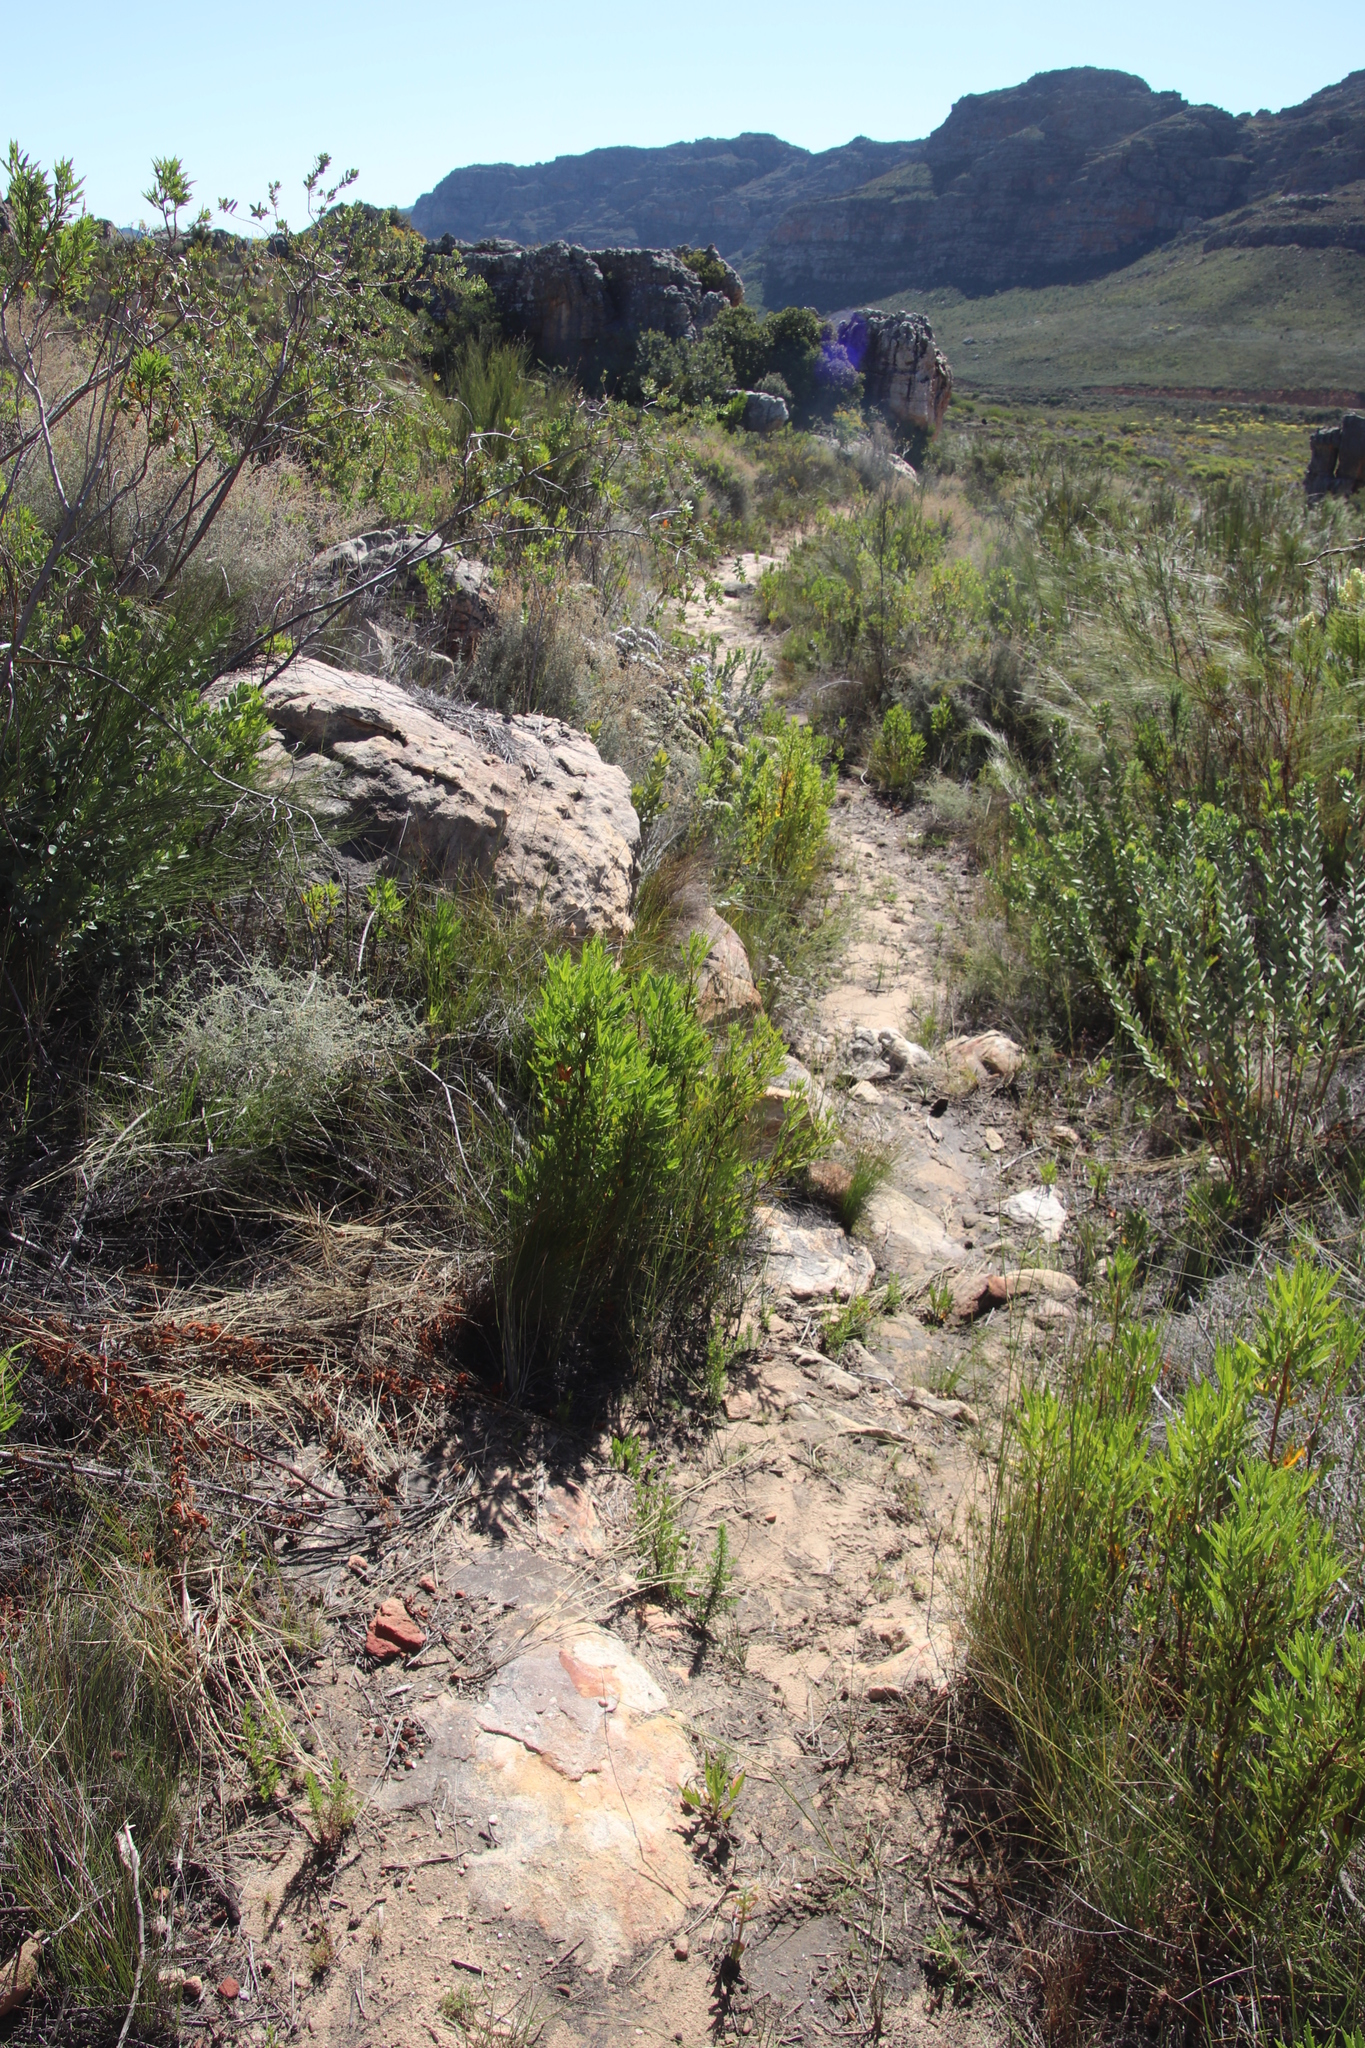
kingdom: Plantae
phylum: Tracheophyta
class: Magnoliopsida
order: Geraniales
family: Geraniaceae
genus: Pelargonium
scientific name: Pelargonium scabrum
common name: Apricot geranium
